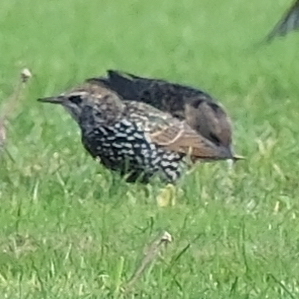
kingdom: Animalia
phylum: Chordata
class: Aves
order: Passeriformes
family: Sturnidae
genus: Sturnus
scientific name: Sturnus vulgaris
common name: Common starling
